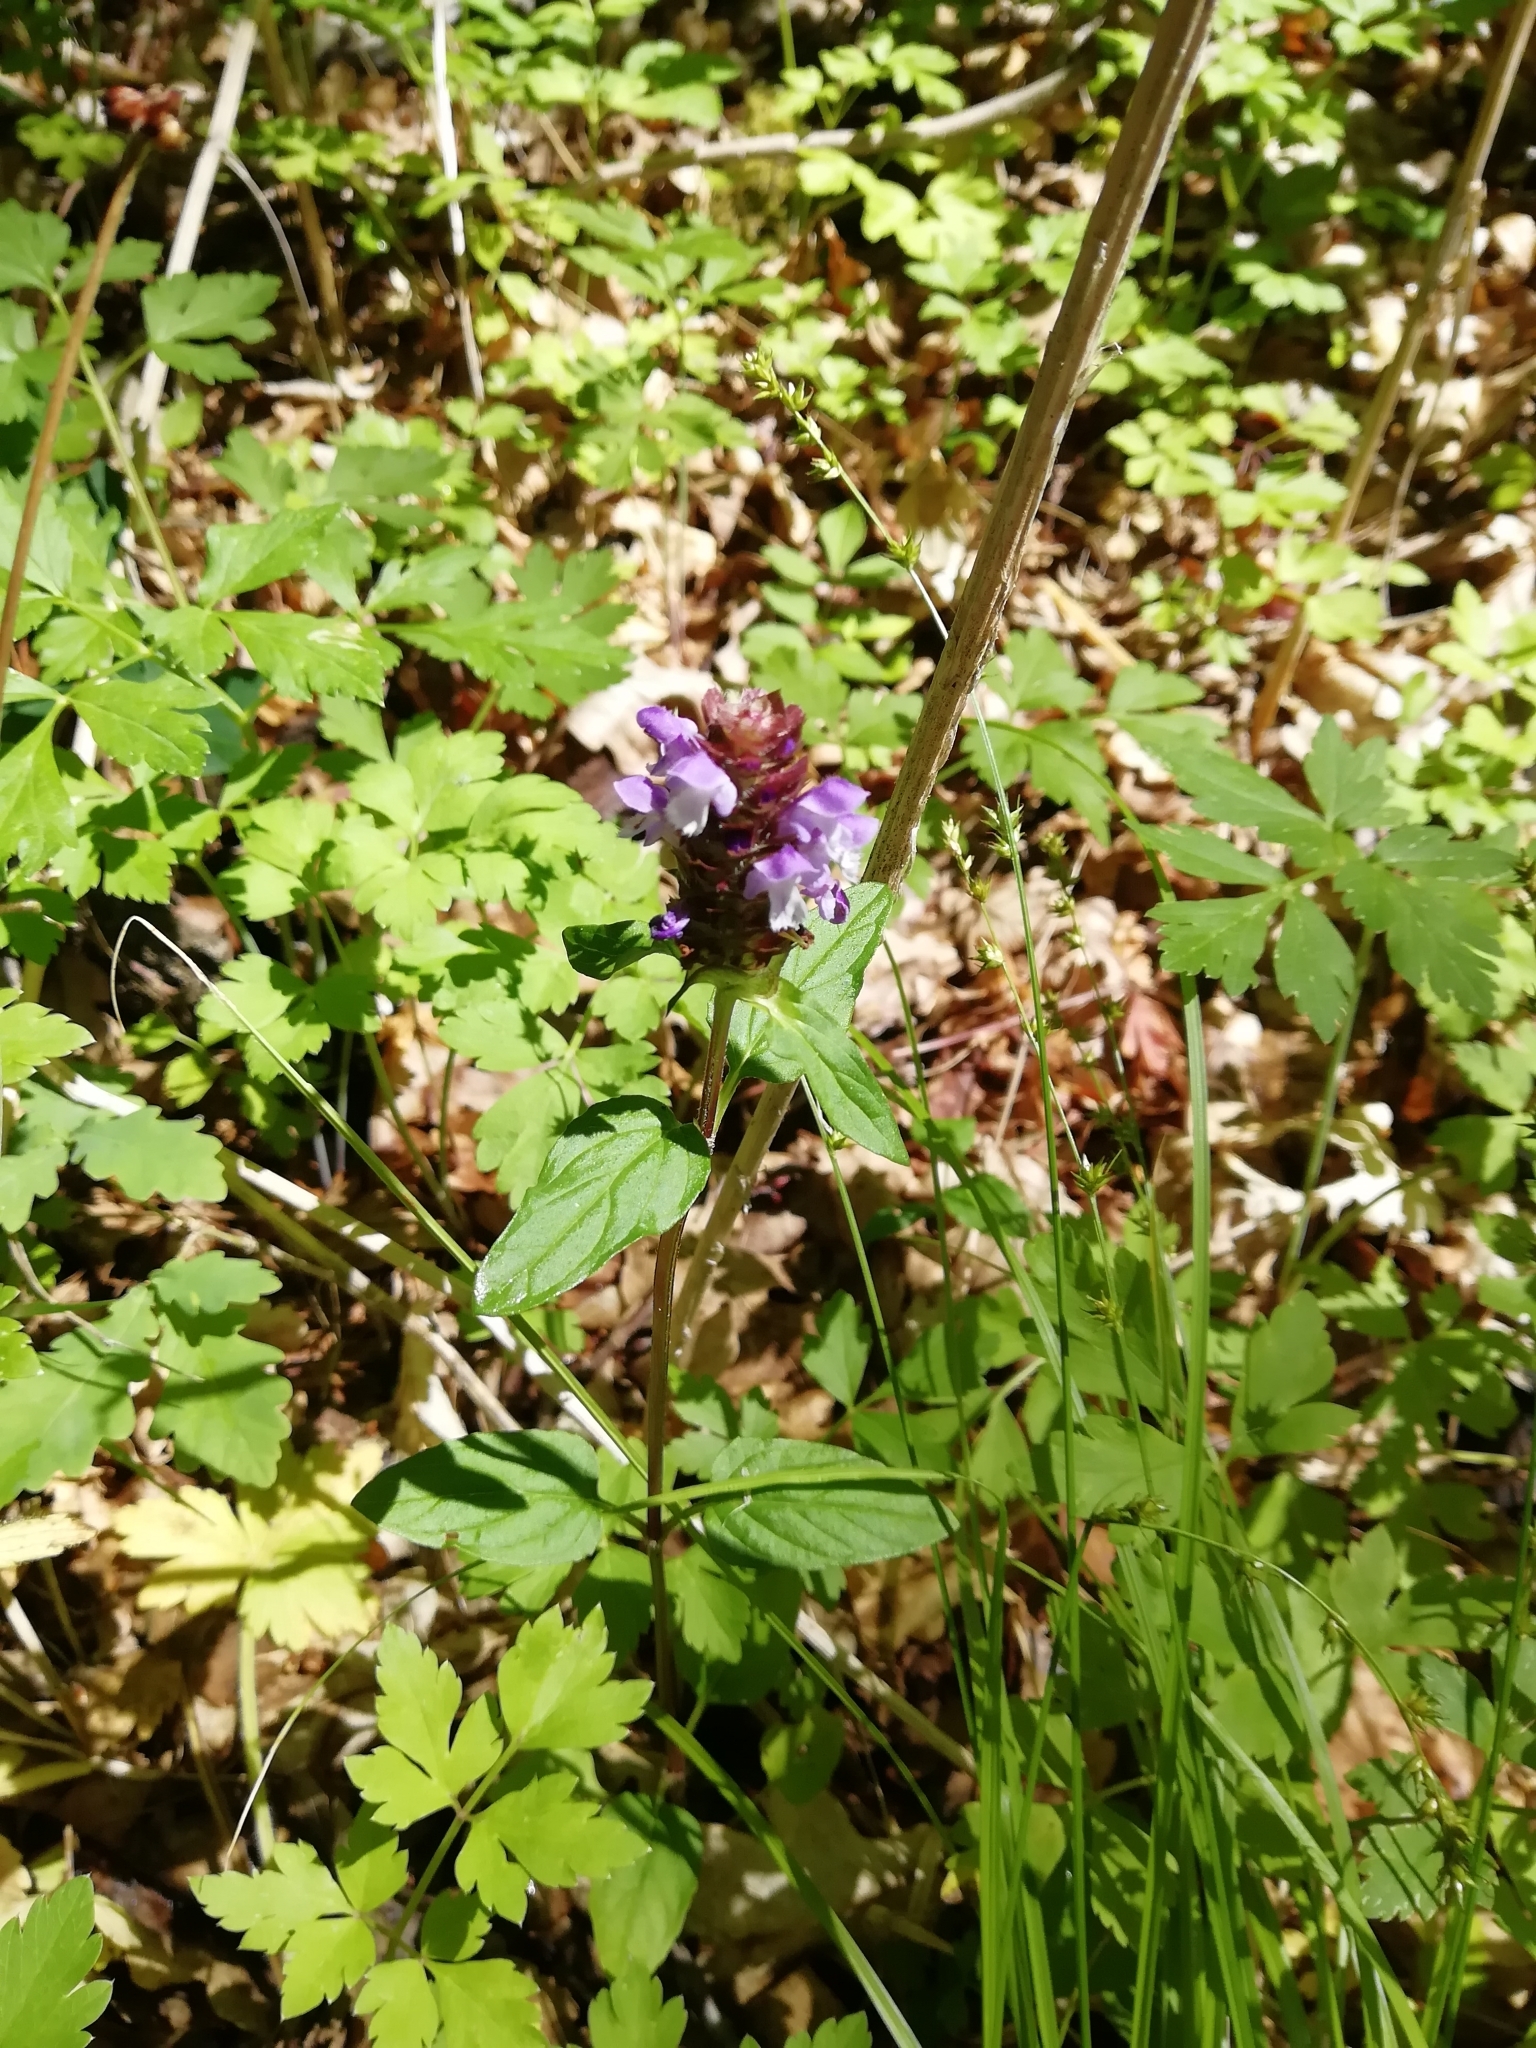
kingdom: Plantae
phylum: Tracheophyta
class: Magnoliopsida
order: Lamiales
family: Lamiaceae
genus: Prunella
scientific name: Prunella vulgaris
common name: Heal-all
